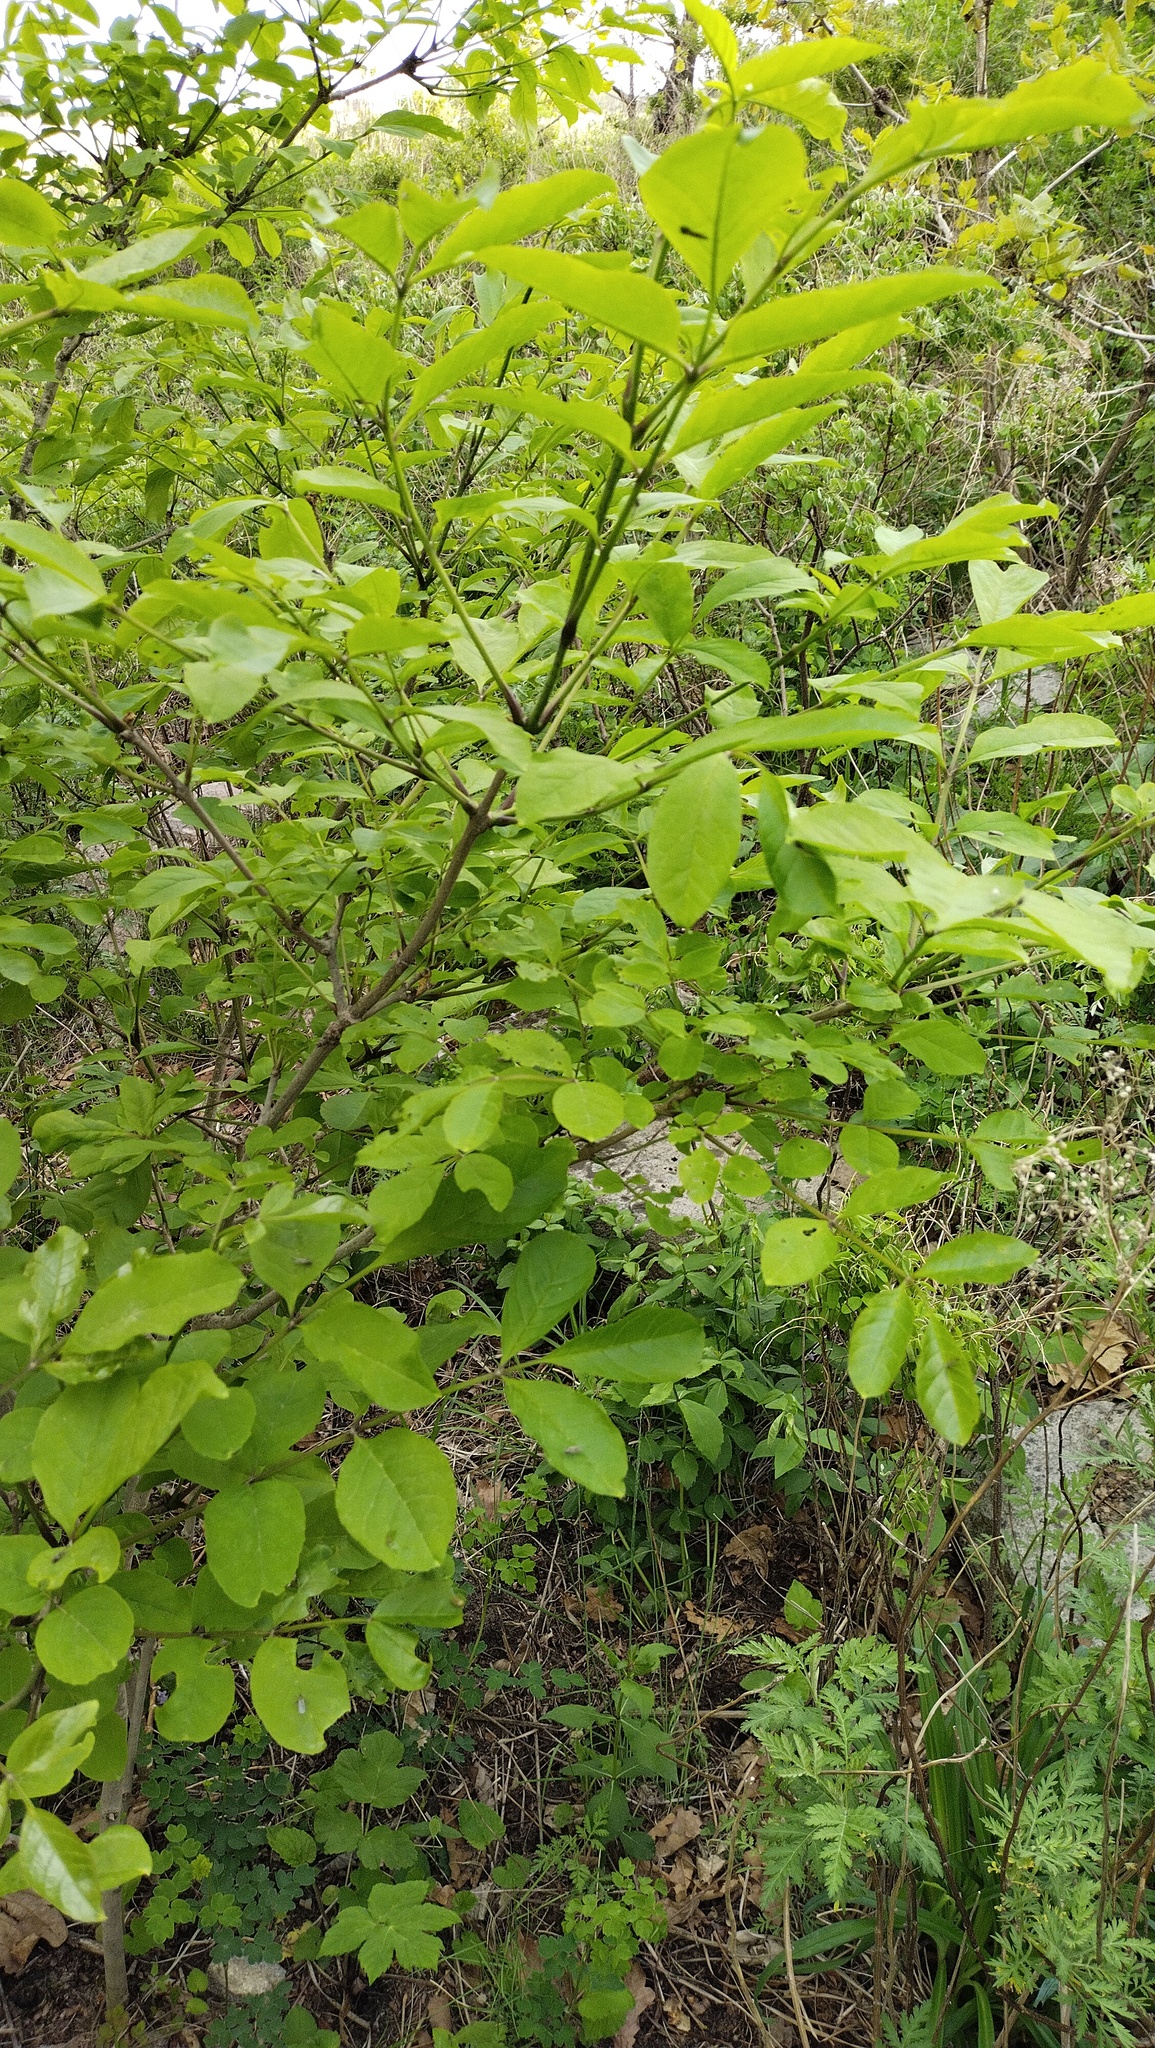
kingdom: Plantae
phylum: Tracheophyta
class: Magnoliopsida
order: Lamiales
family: Oleaceae
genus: Fraxinus
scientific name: Fraxinus chinensis
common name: Chinese ash
